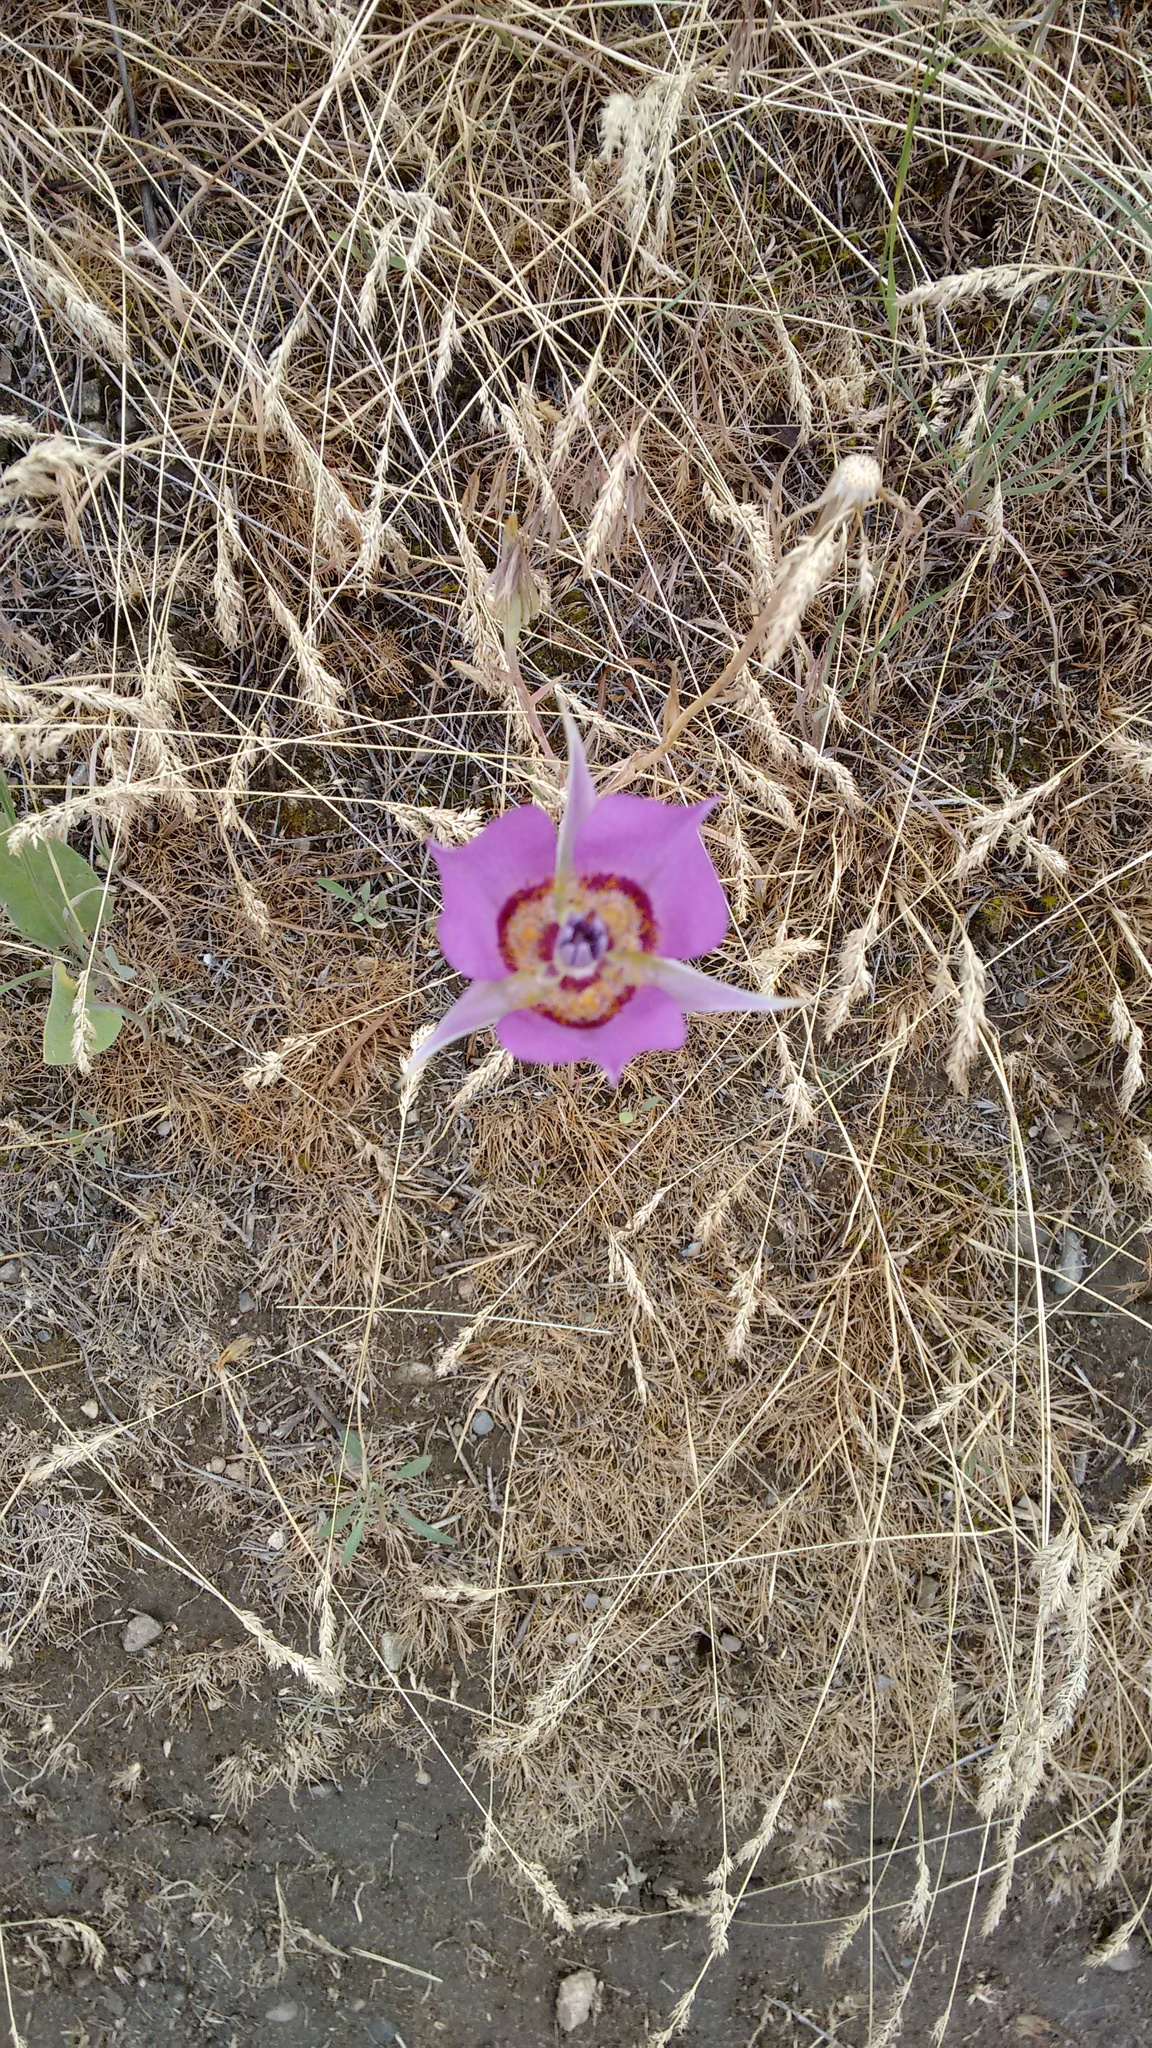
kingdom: Plantae
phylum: Tracheophyta
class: Liliopsida
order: Liliales
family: Liliaceae
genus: Calochortus
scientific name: Calochortus macrocarpus
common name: Green-band mariposa lily
